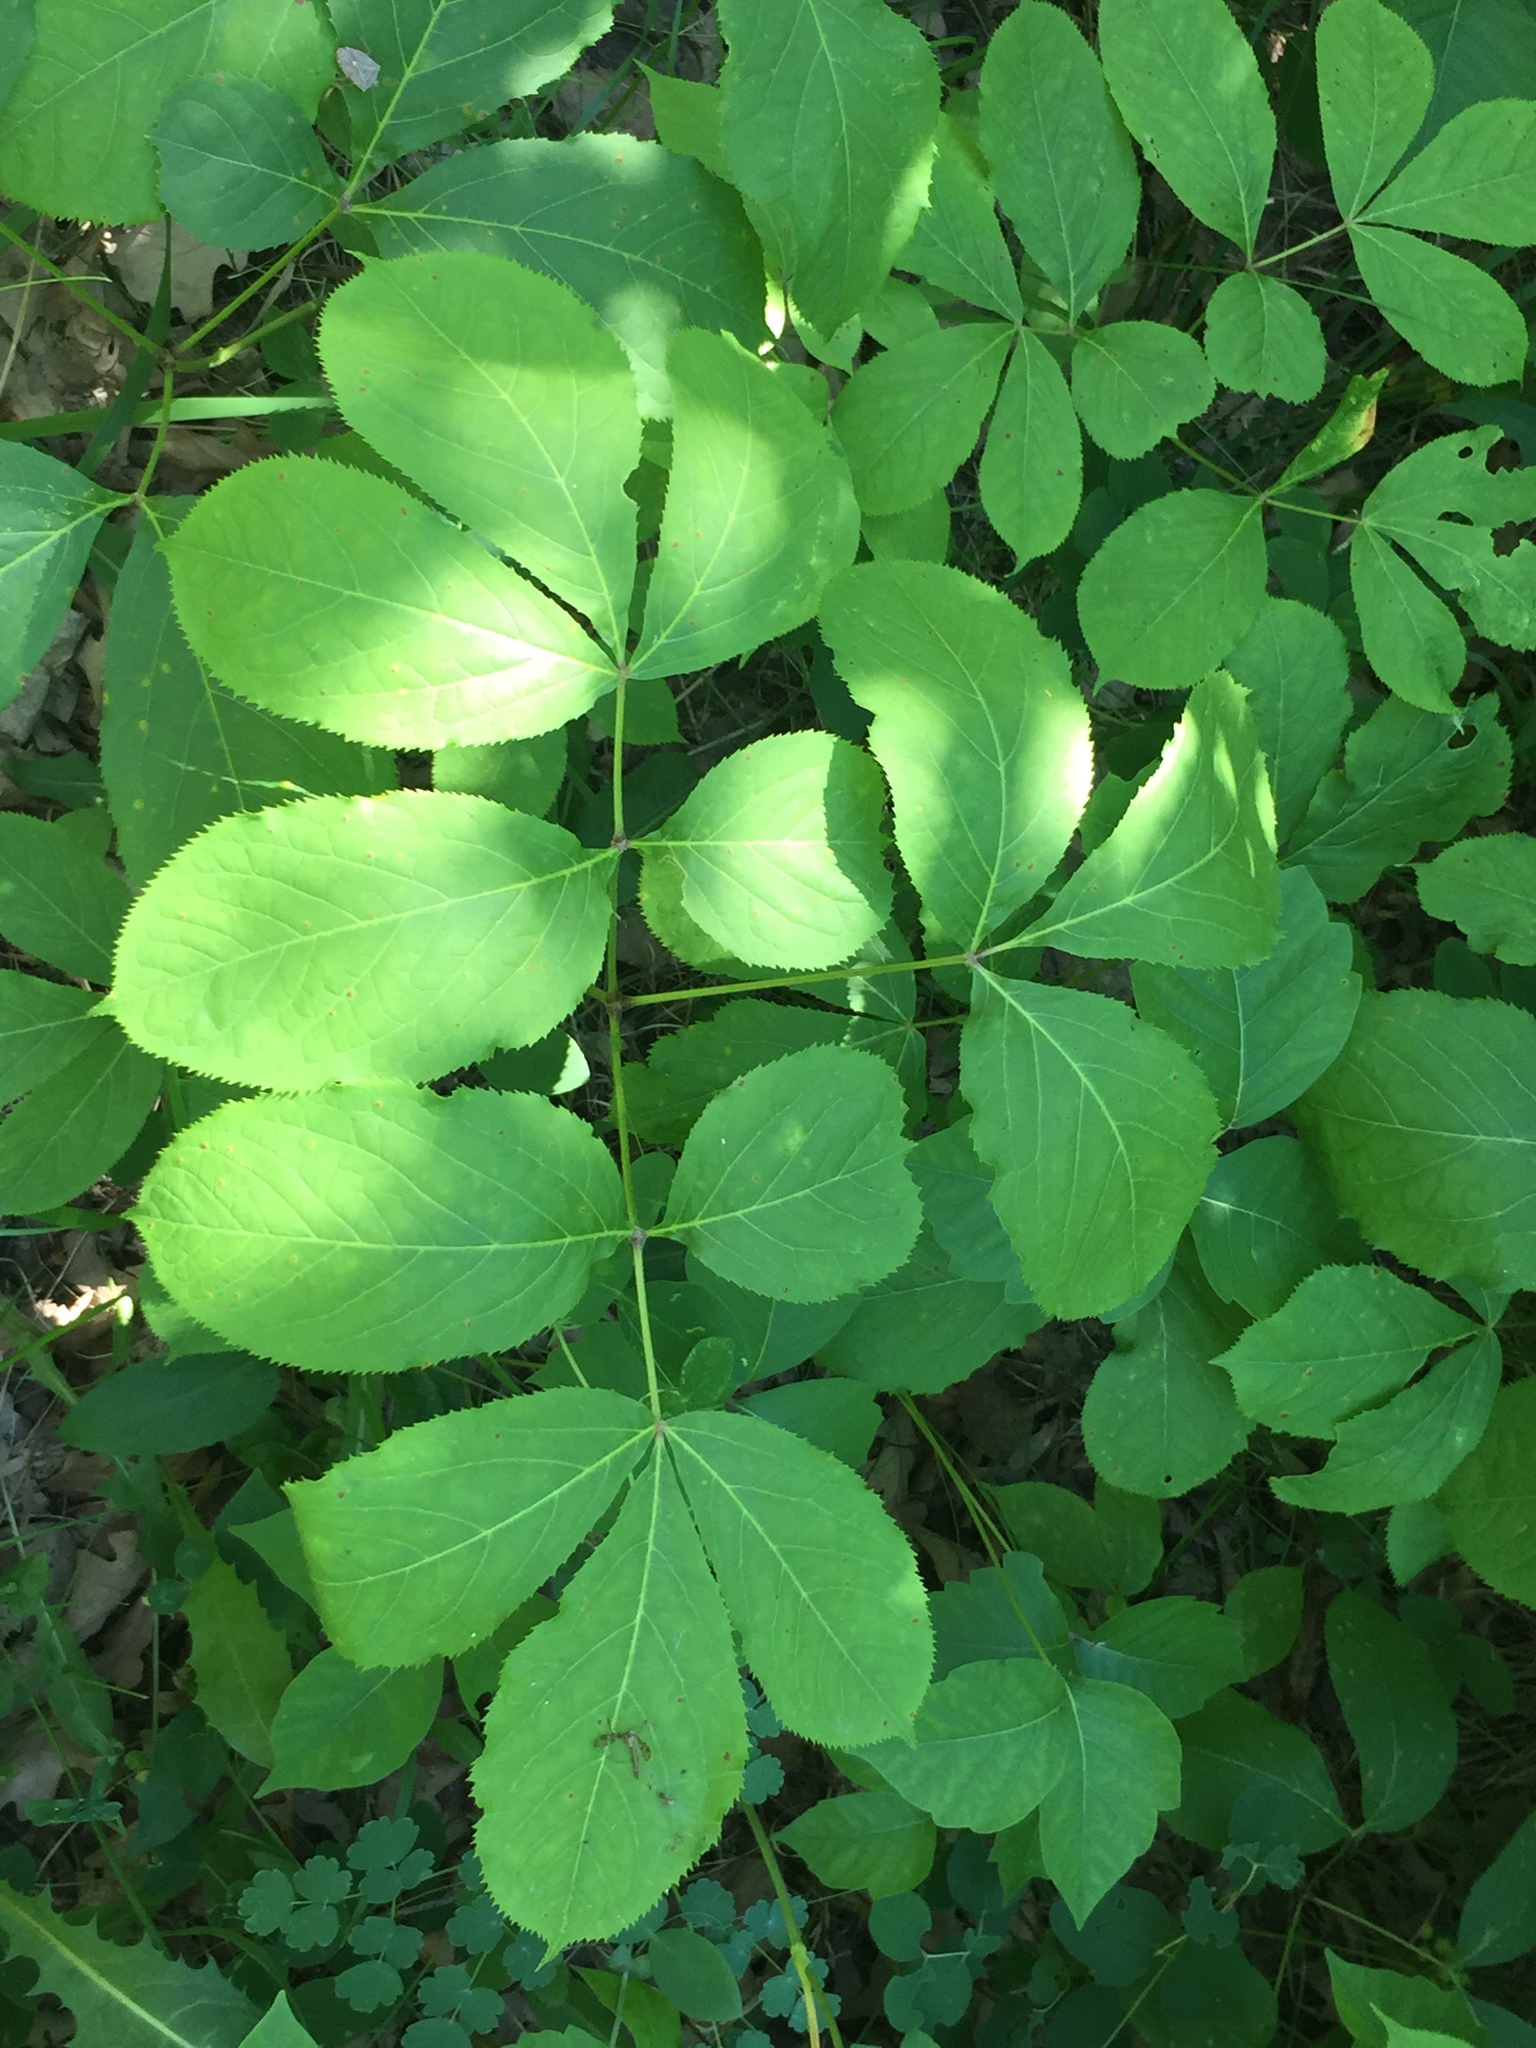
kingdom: Plantae
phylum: Tracheophyta
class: Magnoliopsida
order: Apiales
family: Araliaceae
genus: Aralia
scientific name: Aralia nudicaulis
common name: Wild sarsaparilla
